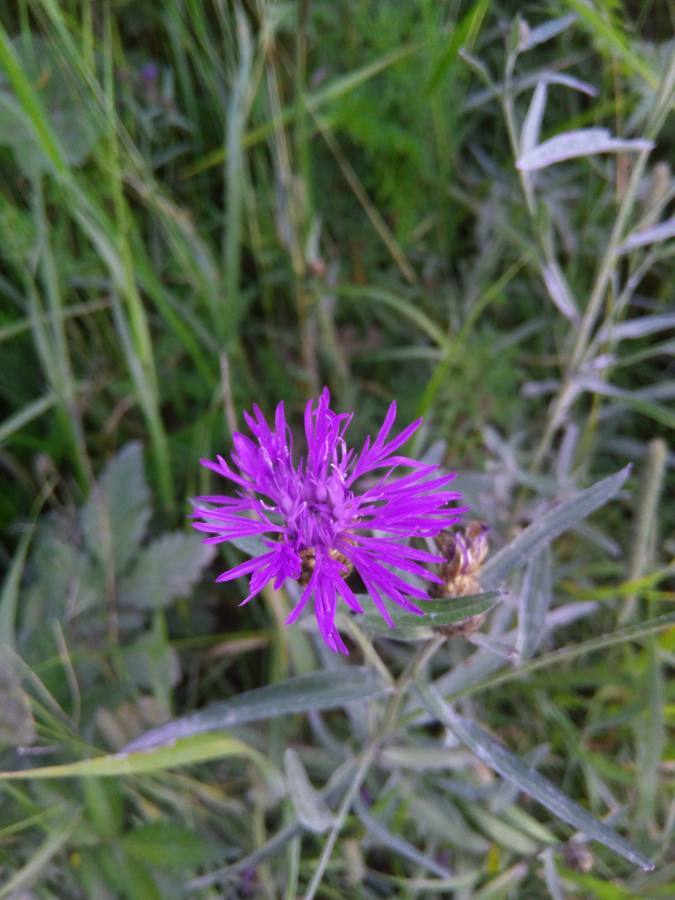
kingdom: Plantae
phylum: Tracheophyta
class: Magnoliopsida
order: Asterales
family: Asteraceae
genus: Centaurea
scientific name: Centaurea jacea
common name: Brown knapweed
